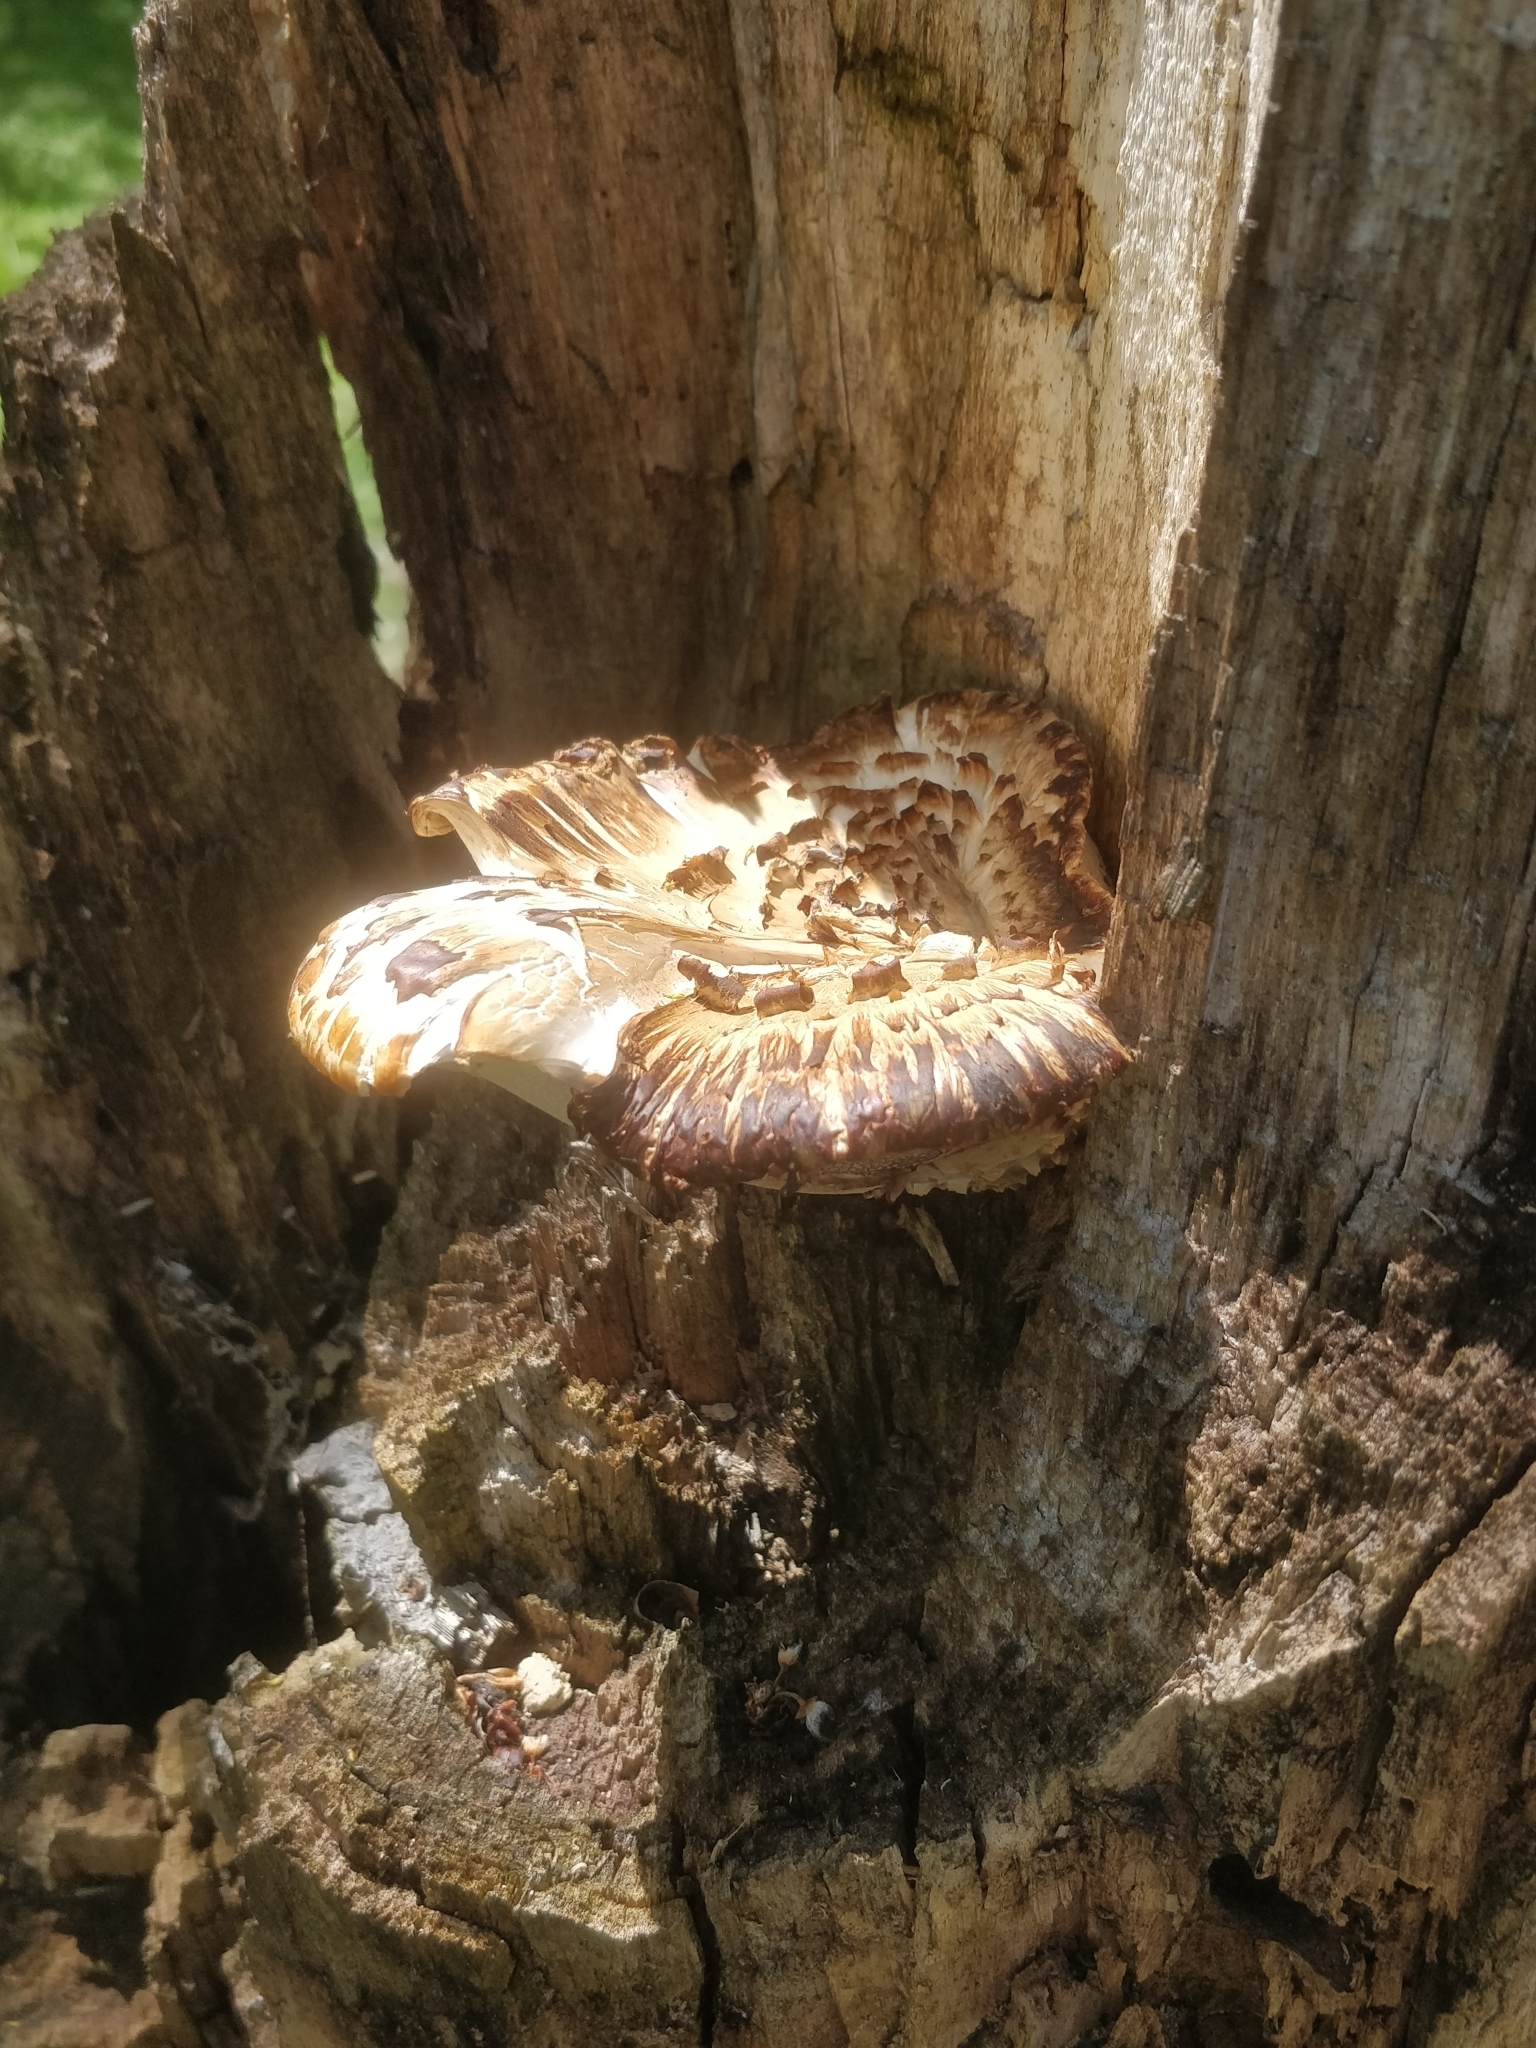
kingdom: Fungi
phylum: Basidiomycota
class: Agaricomycetes
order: Polyporales
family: Polyporaceae
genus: Cerioporus
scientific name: Cerioporus squamosus
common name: Dryad's saddle
